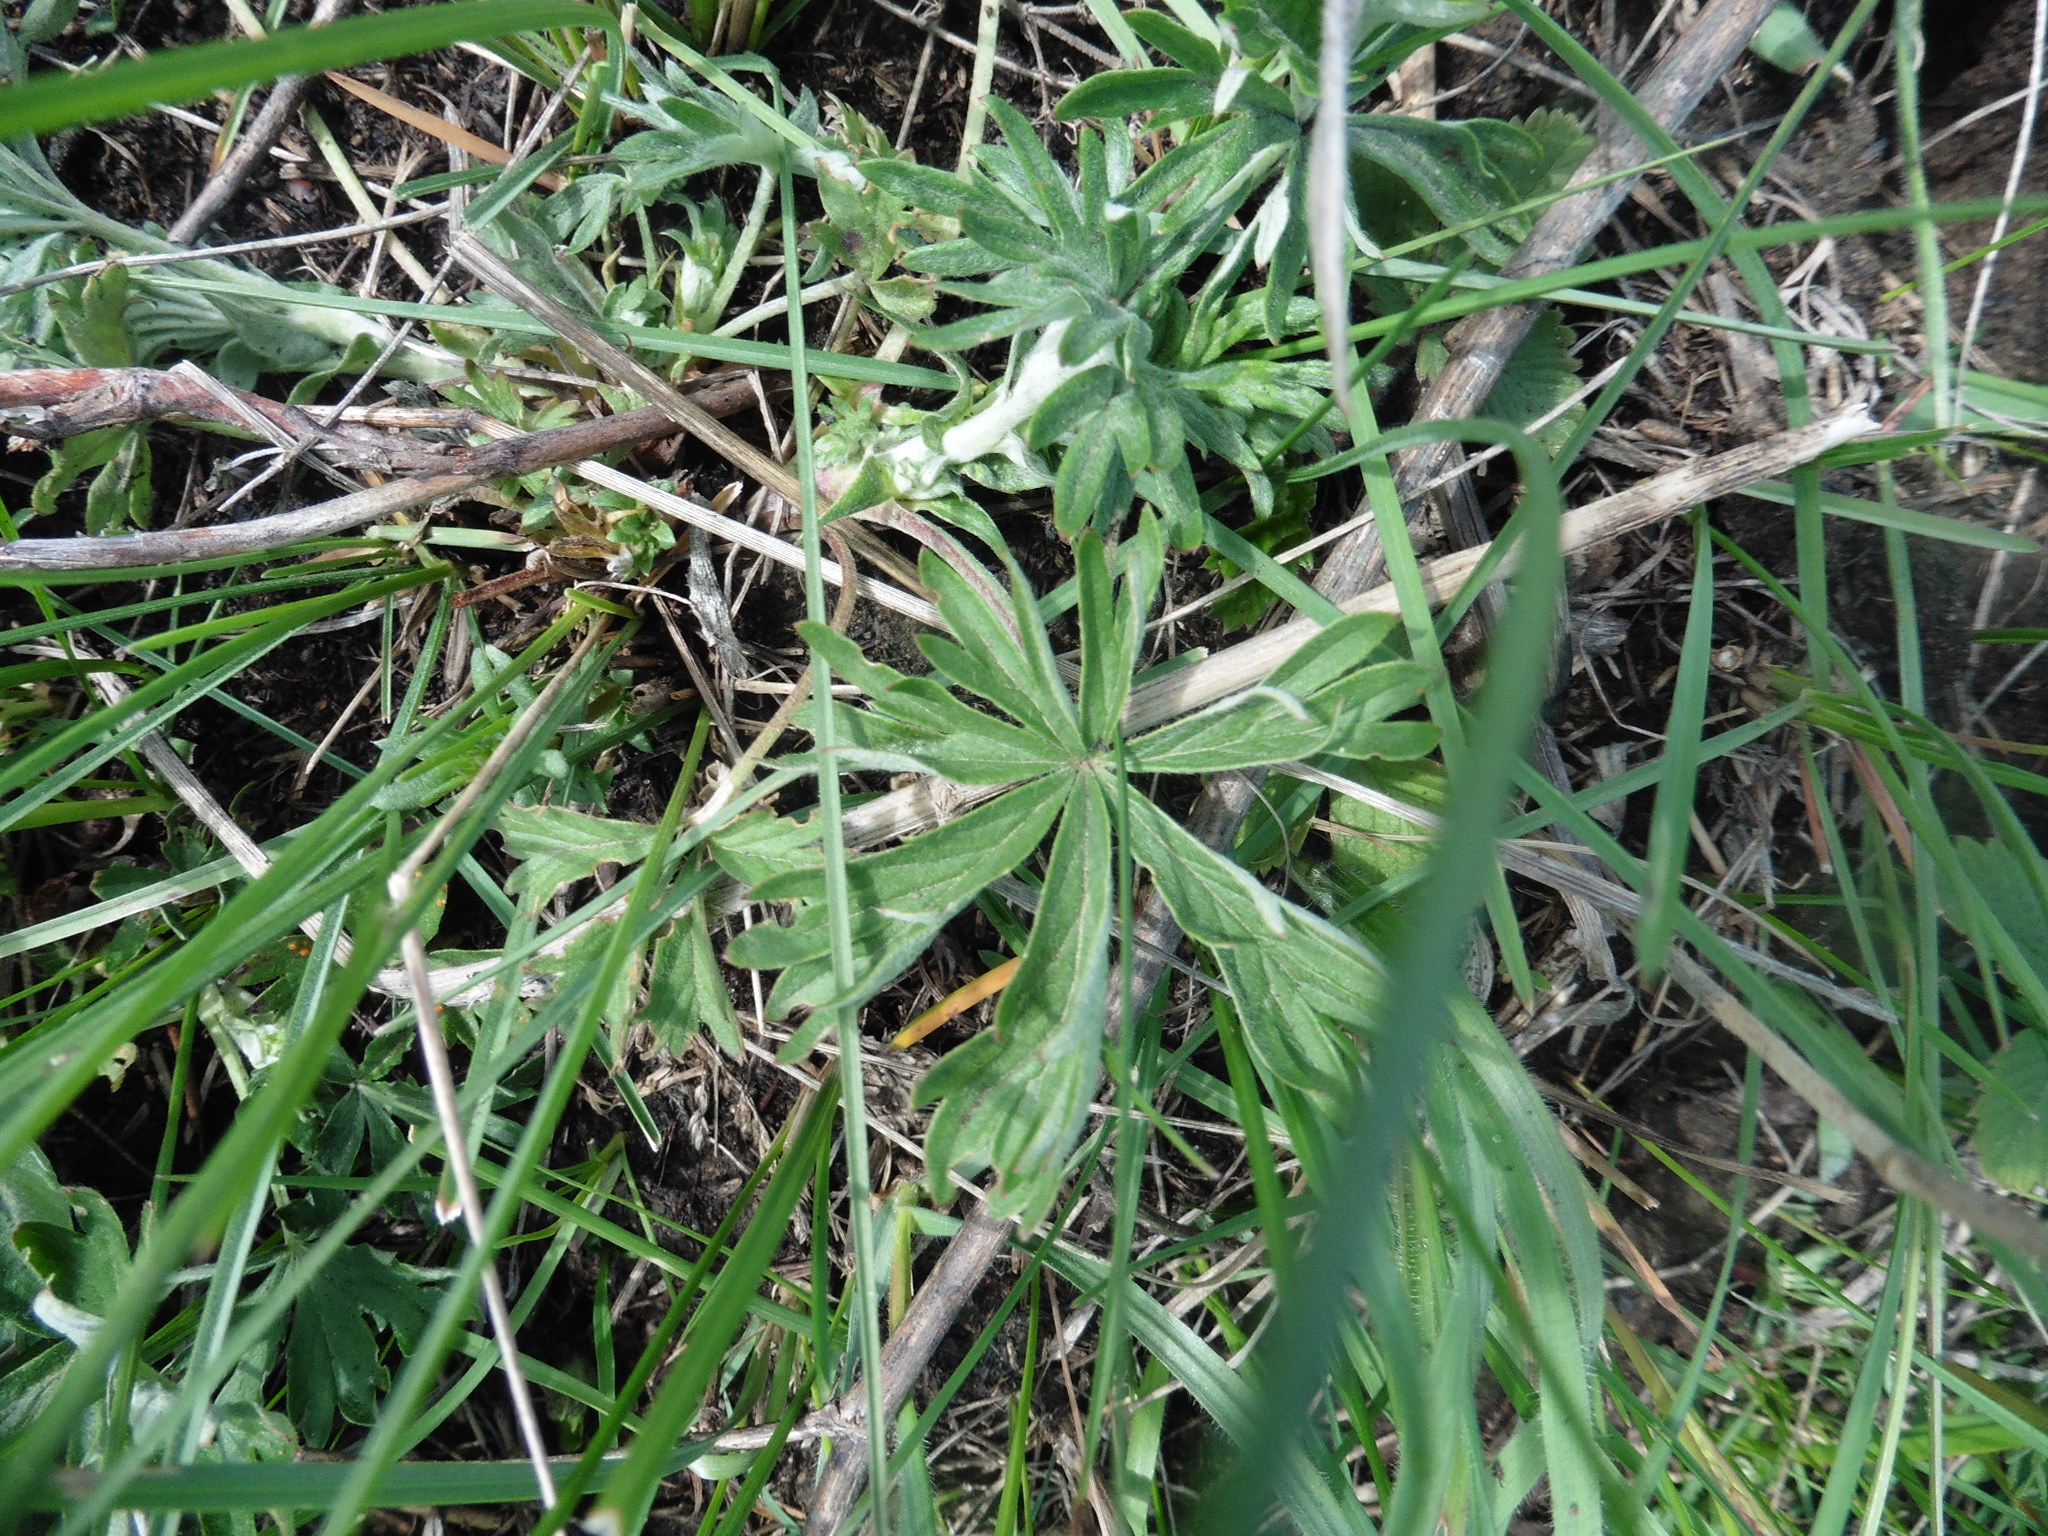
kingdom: Plantae
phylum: Tracheophyta
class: Magnoliopsida
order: Rosales
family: Rosaceae
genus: Potentilla
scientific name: Potentilla argentea
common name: Hoary cinquefoil
